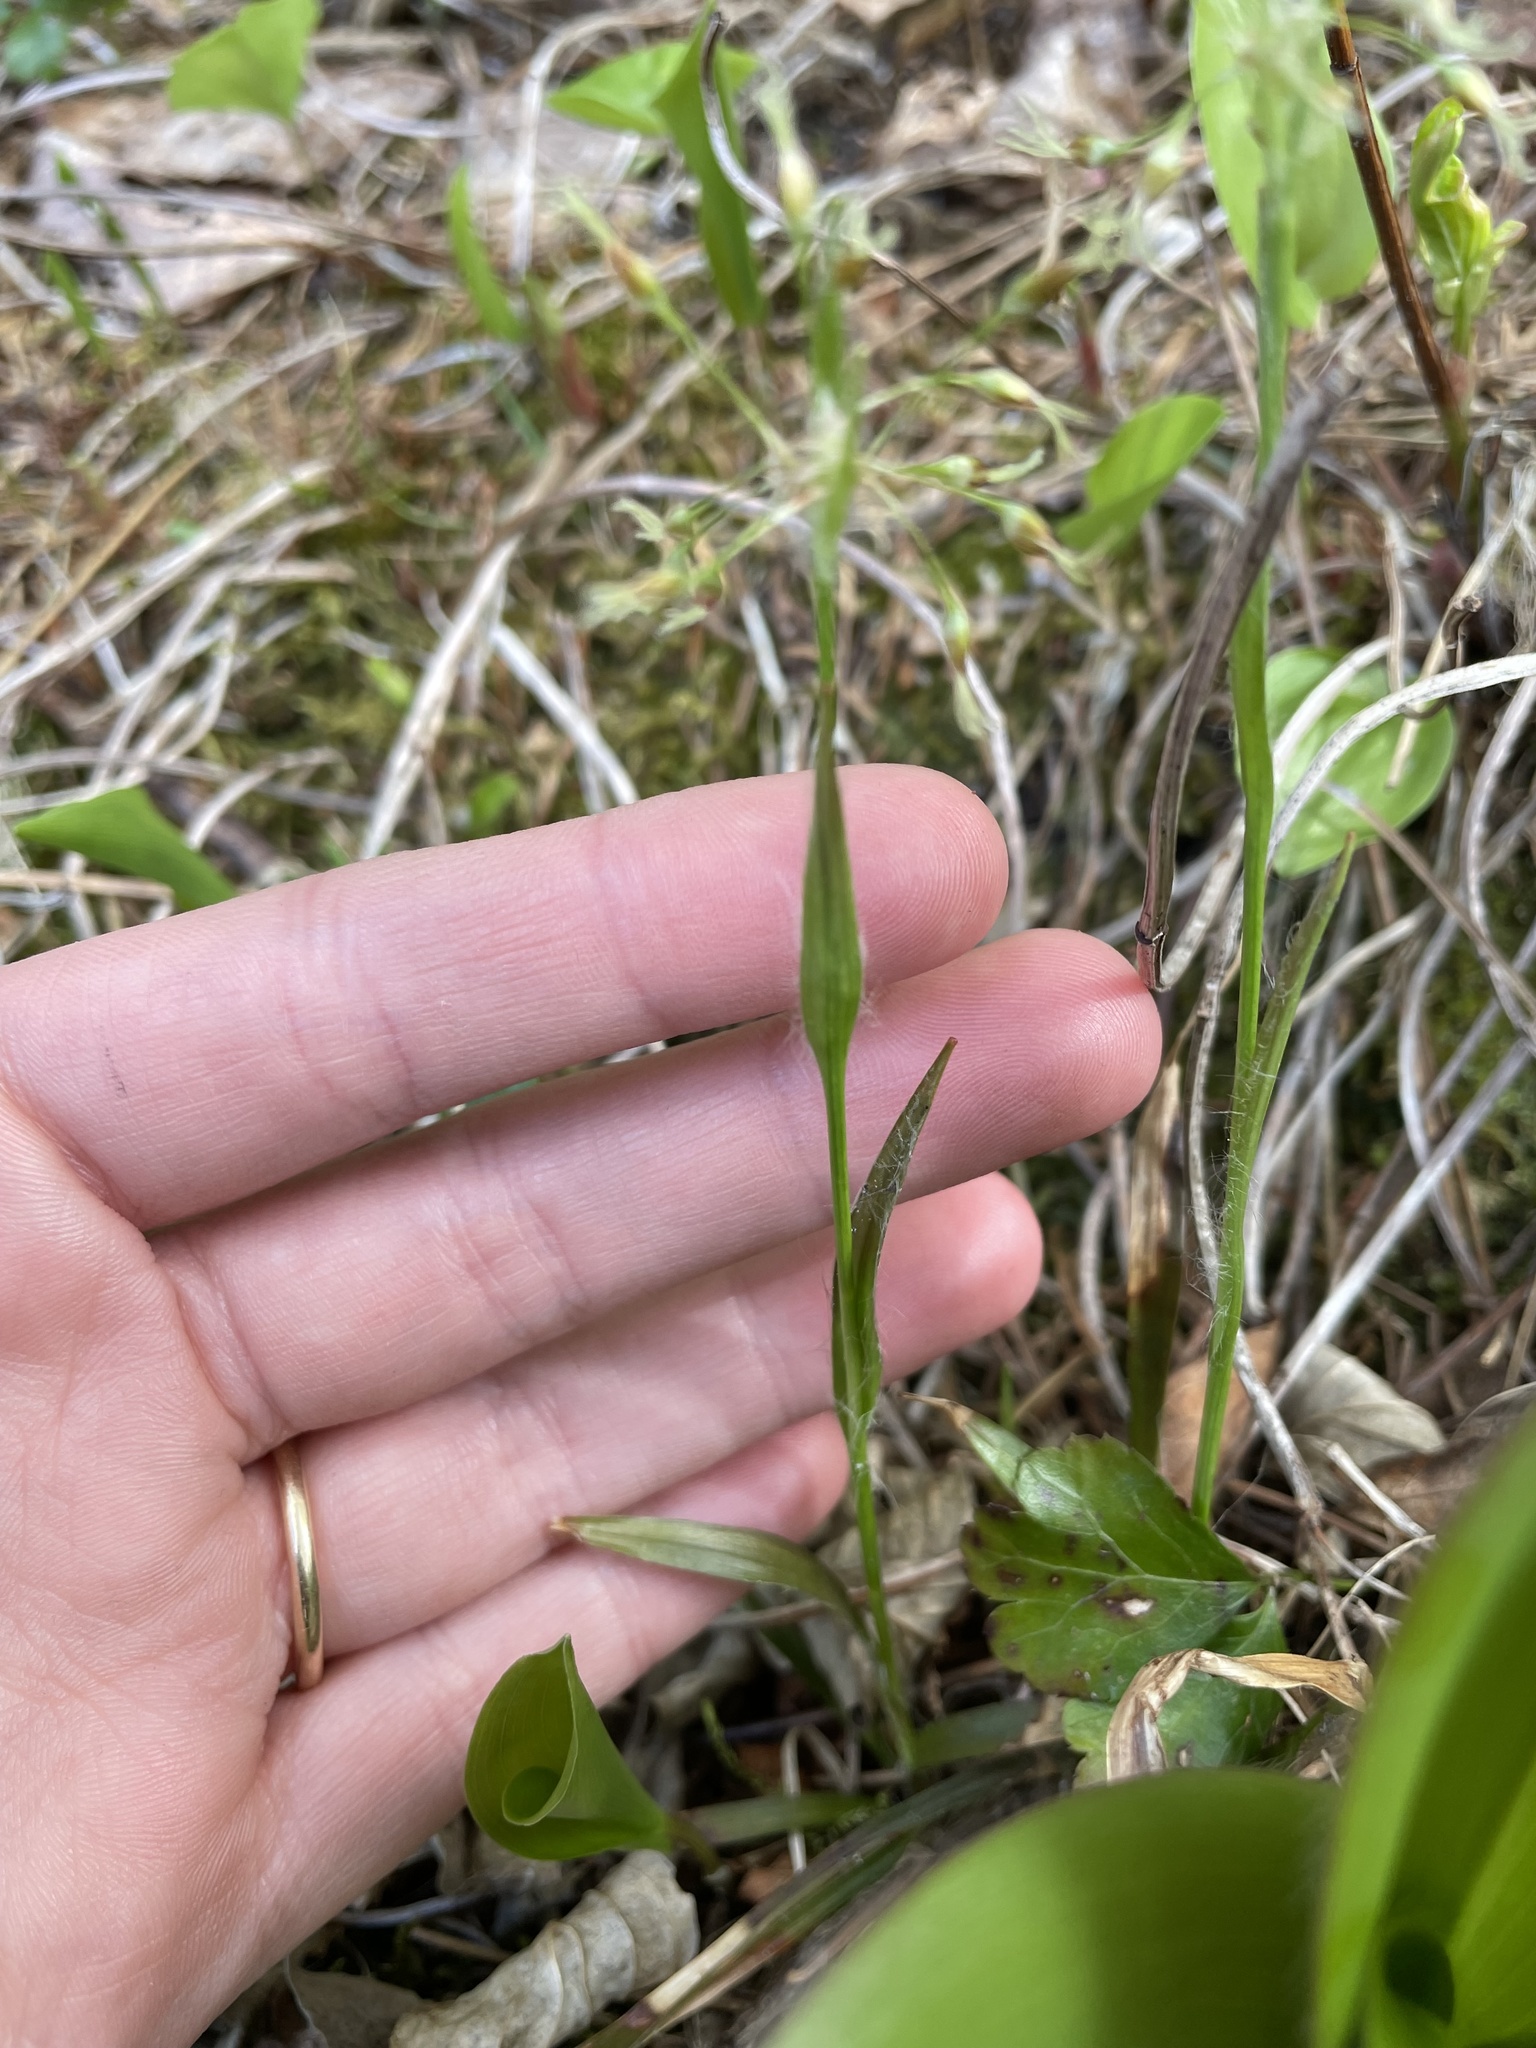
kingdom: Plantae
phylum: Tracheophyta
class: Liliopsida
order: Poales
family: Juncaceae
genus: Luzula
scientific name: Luzula acuminata
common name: Hairy woodrush
